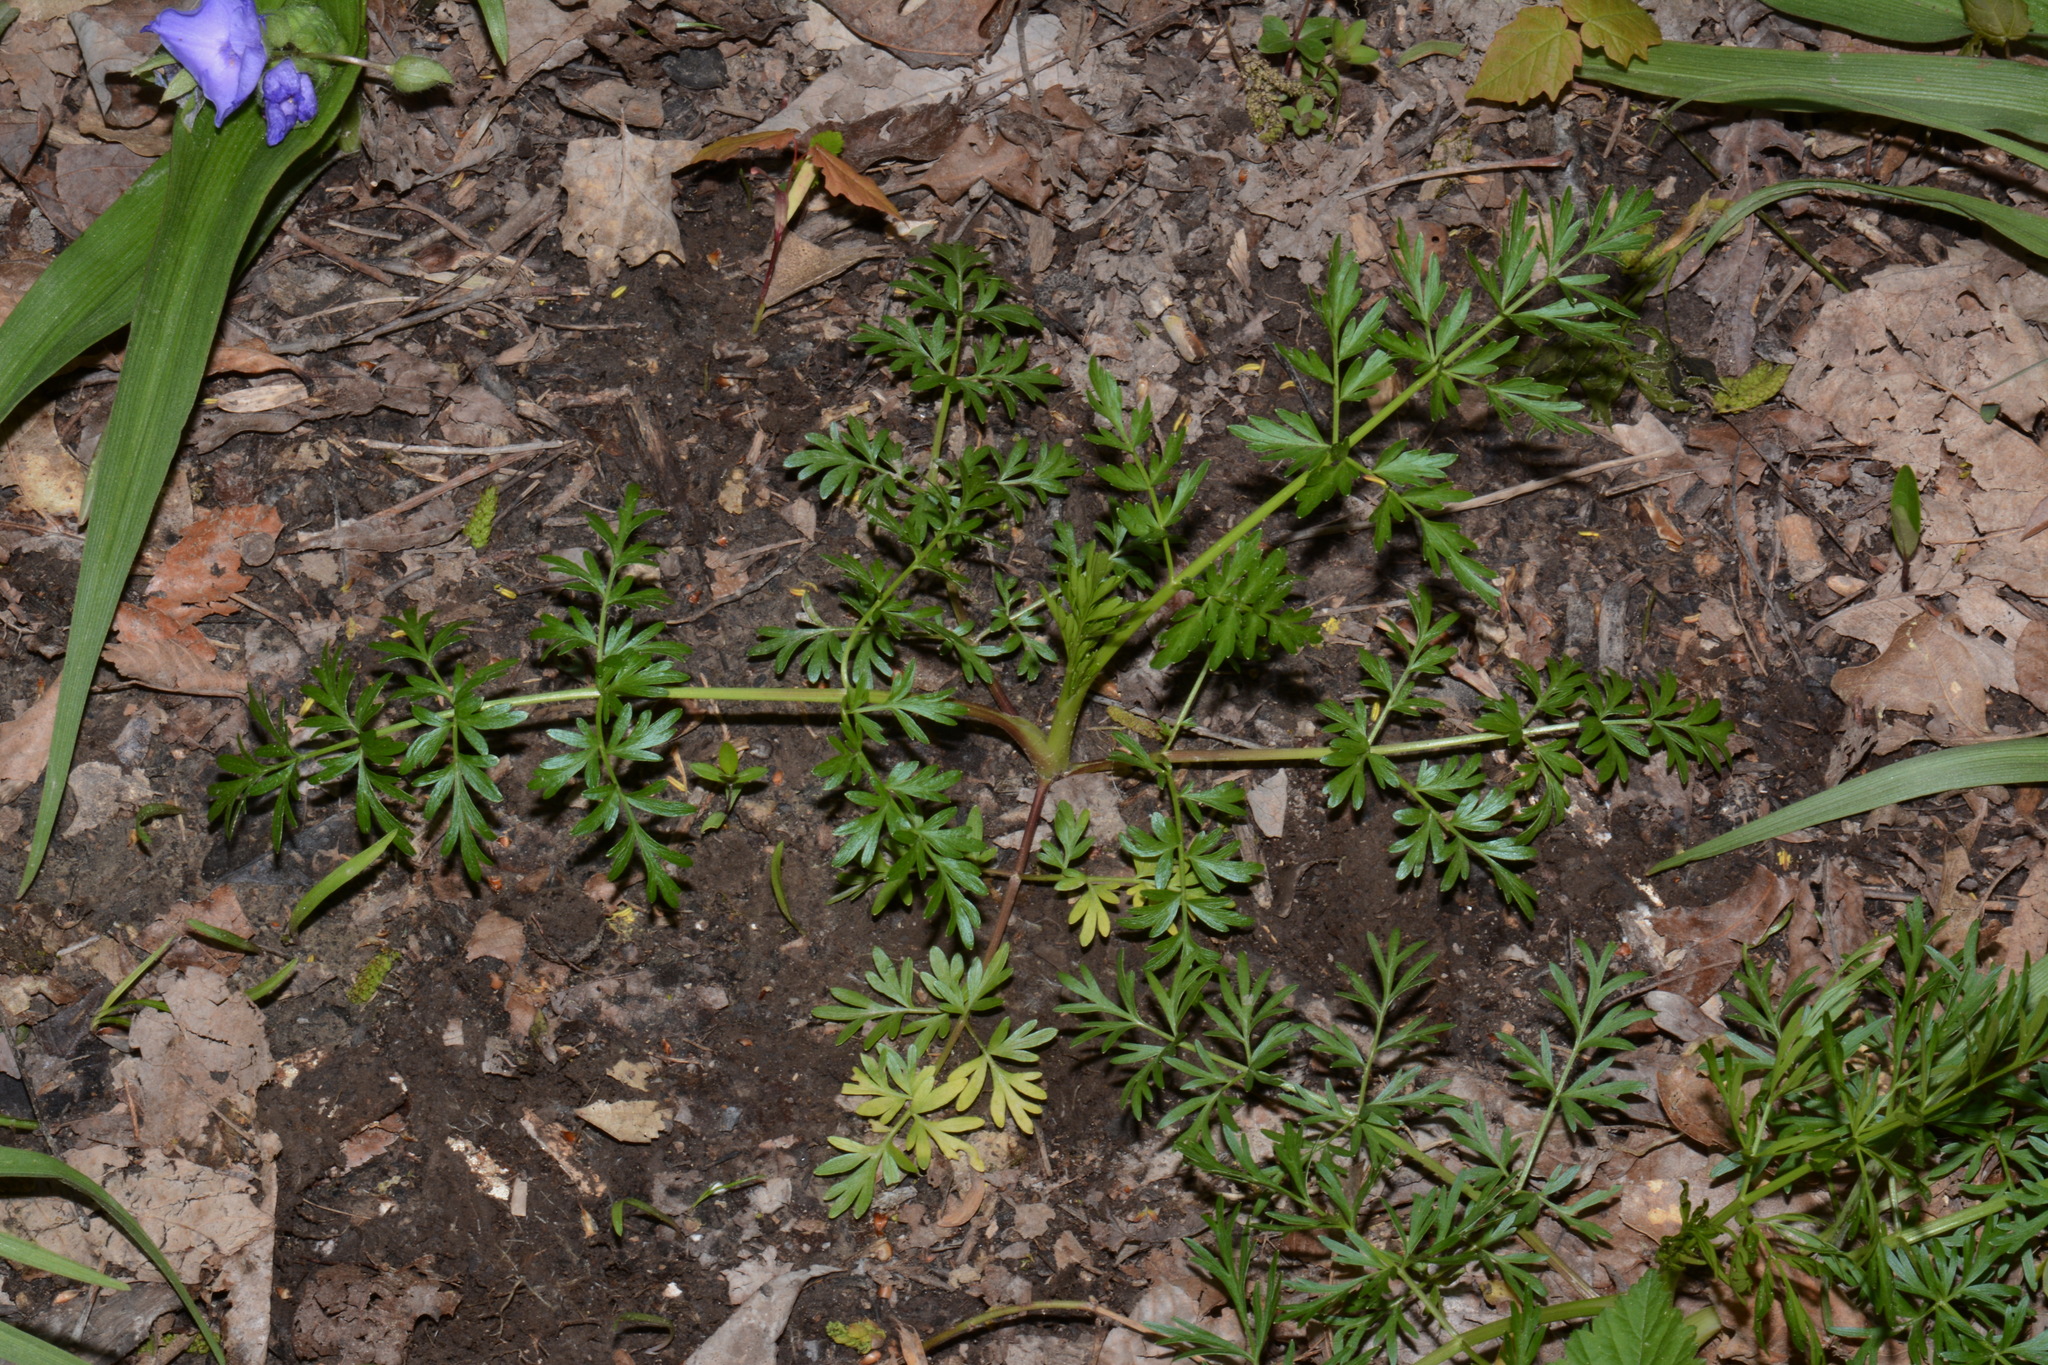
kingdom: Plantae
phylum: Tracheophyta
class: Magnoliopsida
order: Apiales
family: Apiaceae
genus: Perideridia
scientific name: Perideridia americana
